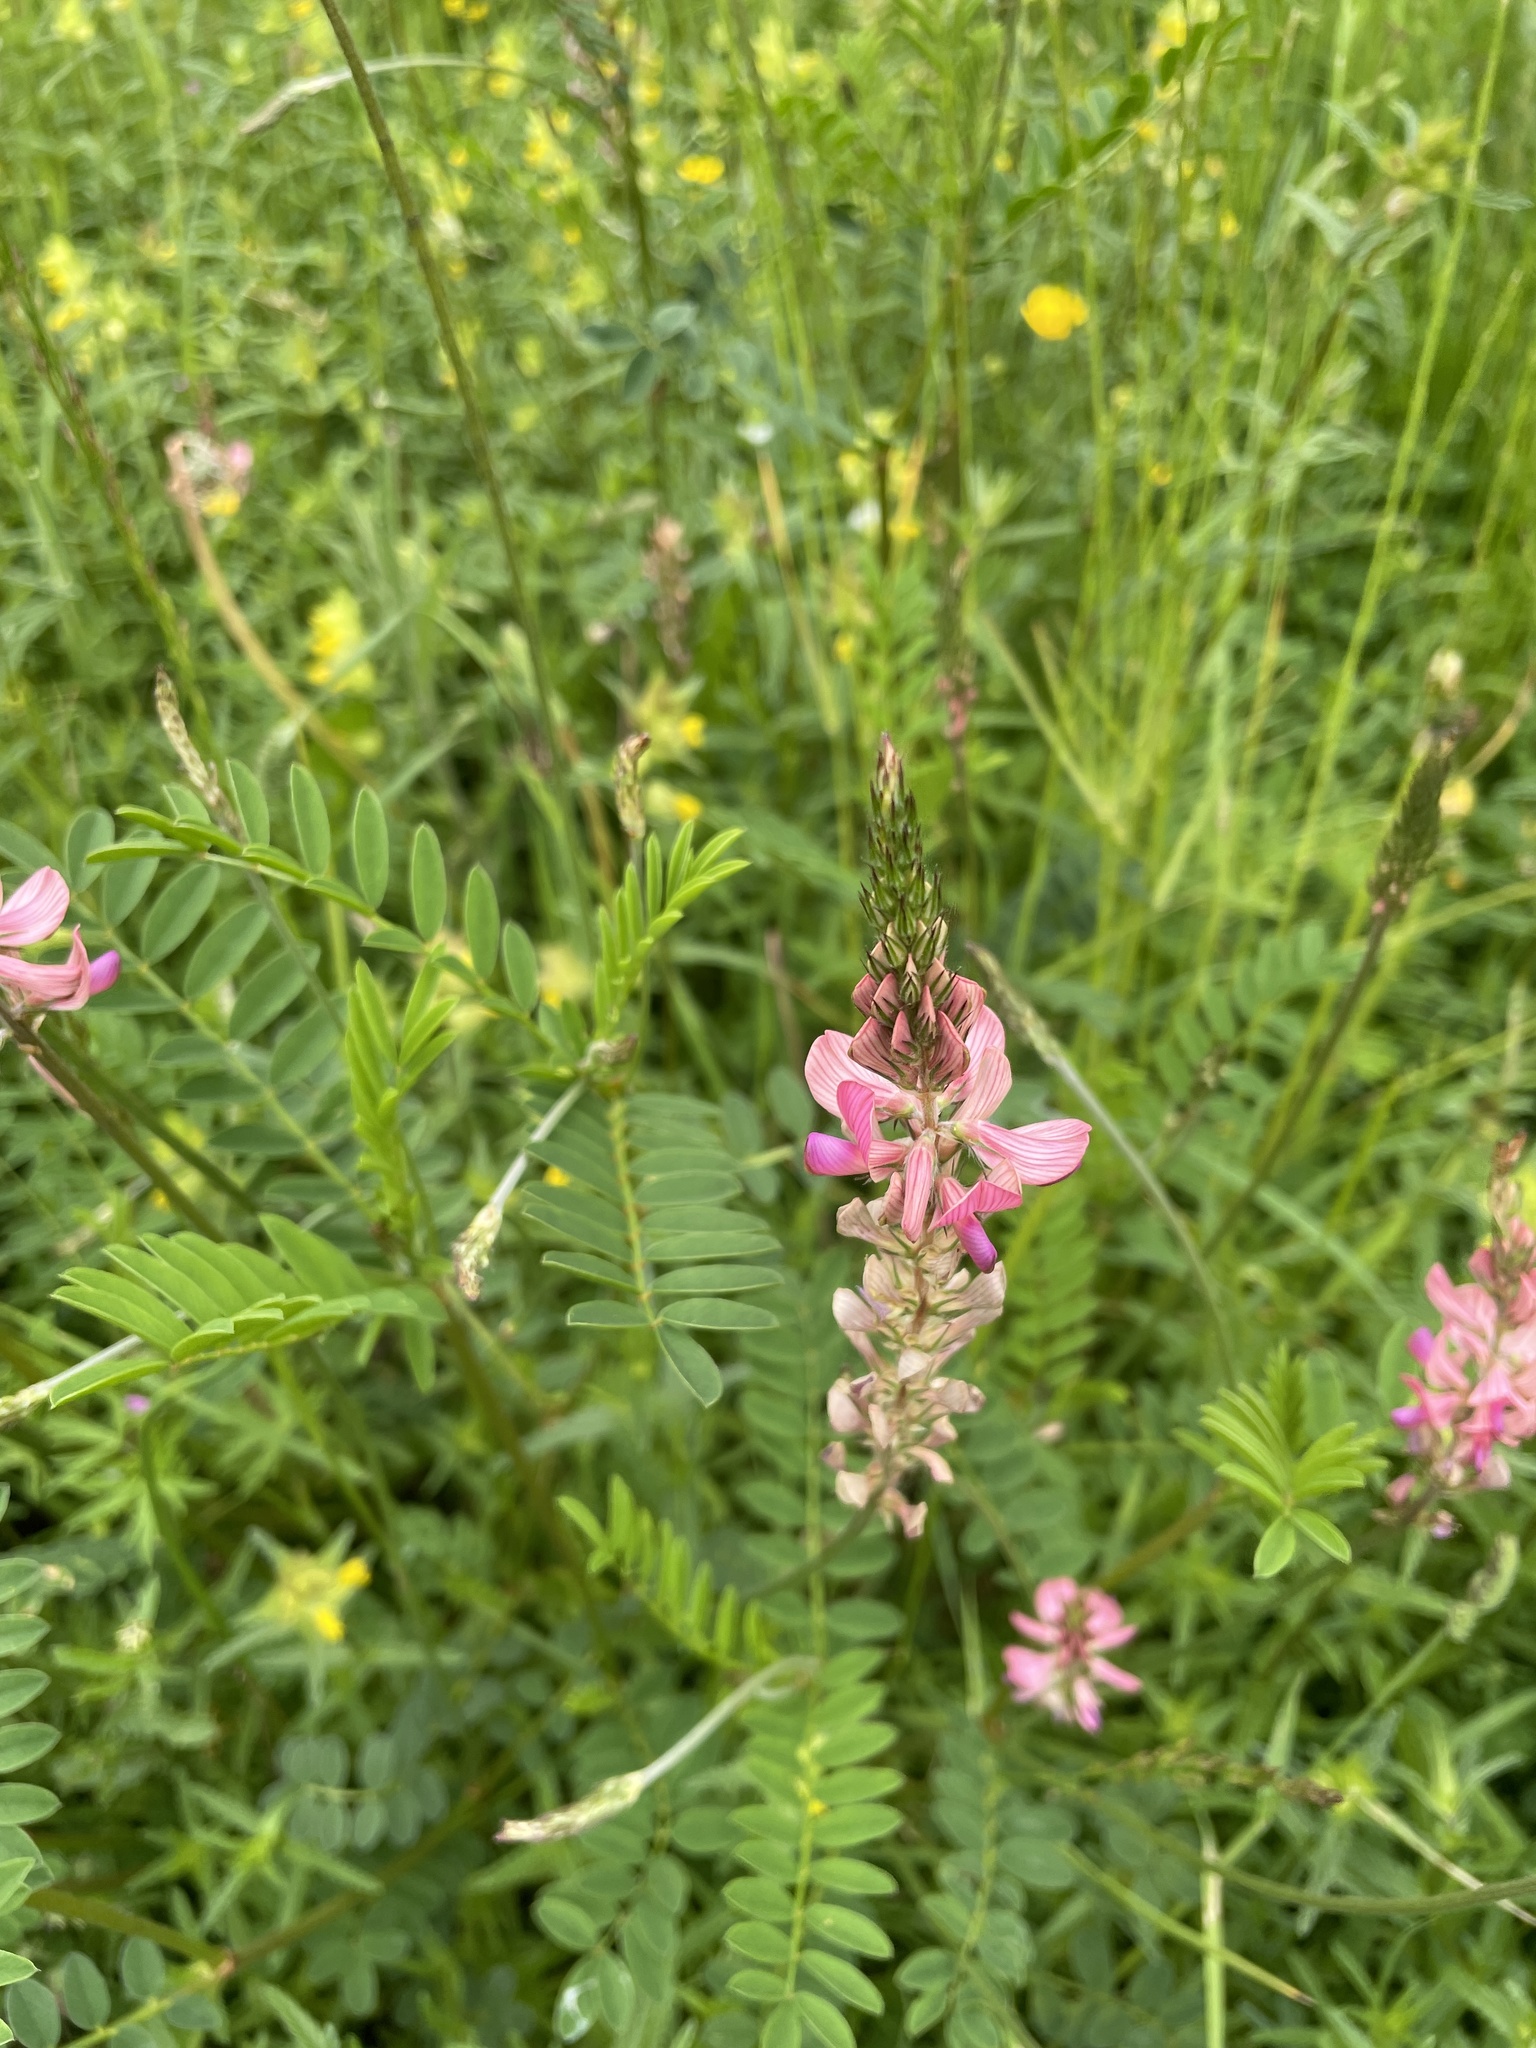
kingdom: Plantae
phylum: Tracheophyta
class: Magnoliopsida
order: Fabales
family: Fabaceae
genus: Onobrychis
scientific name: Onobrychis viciifolia
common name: Sainfoin
